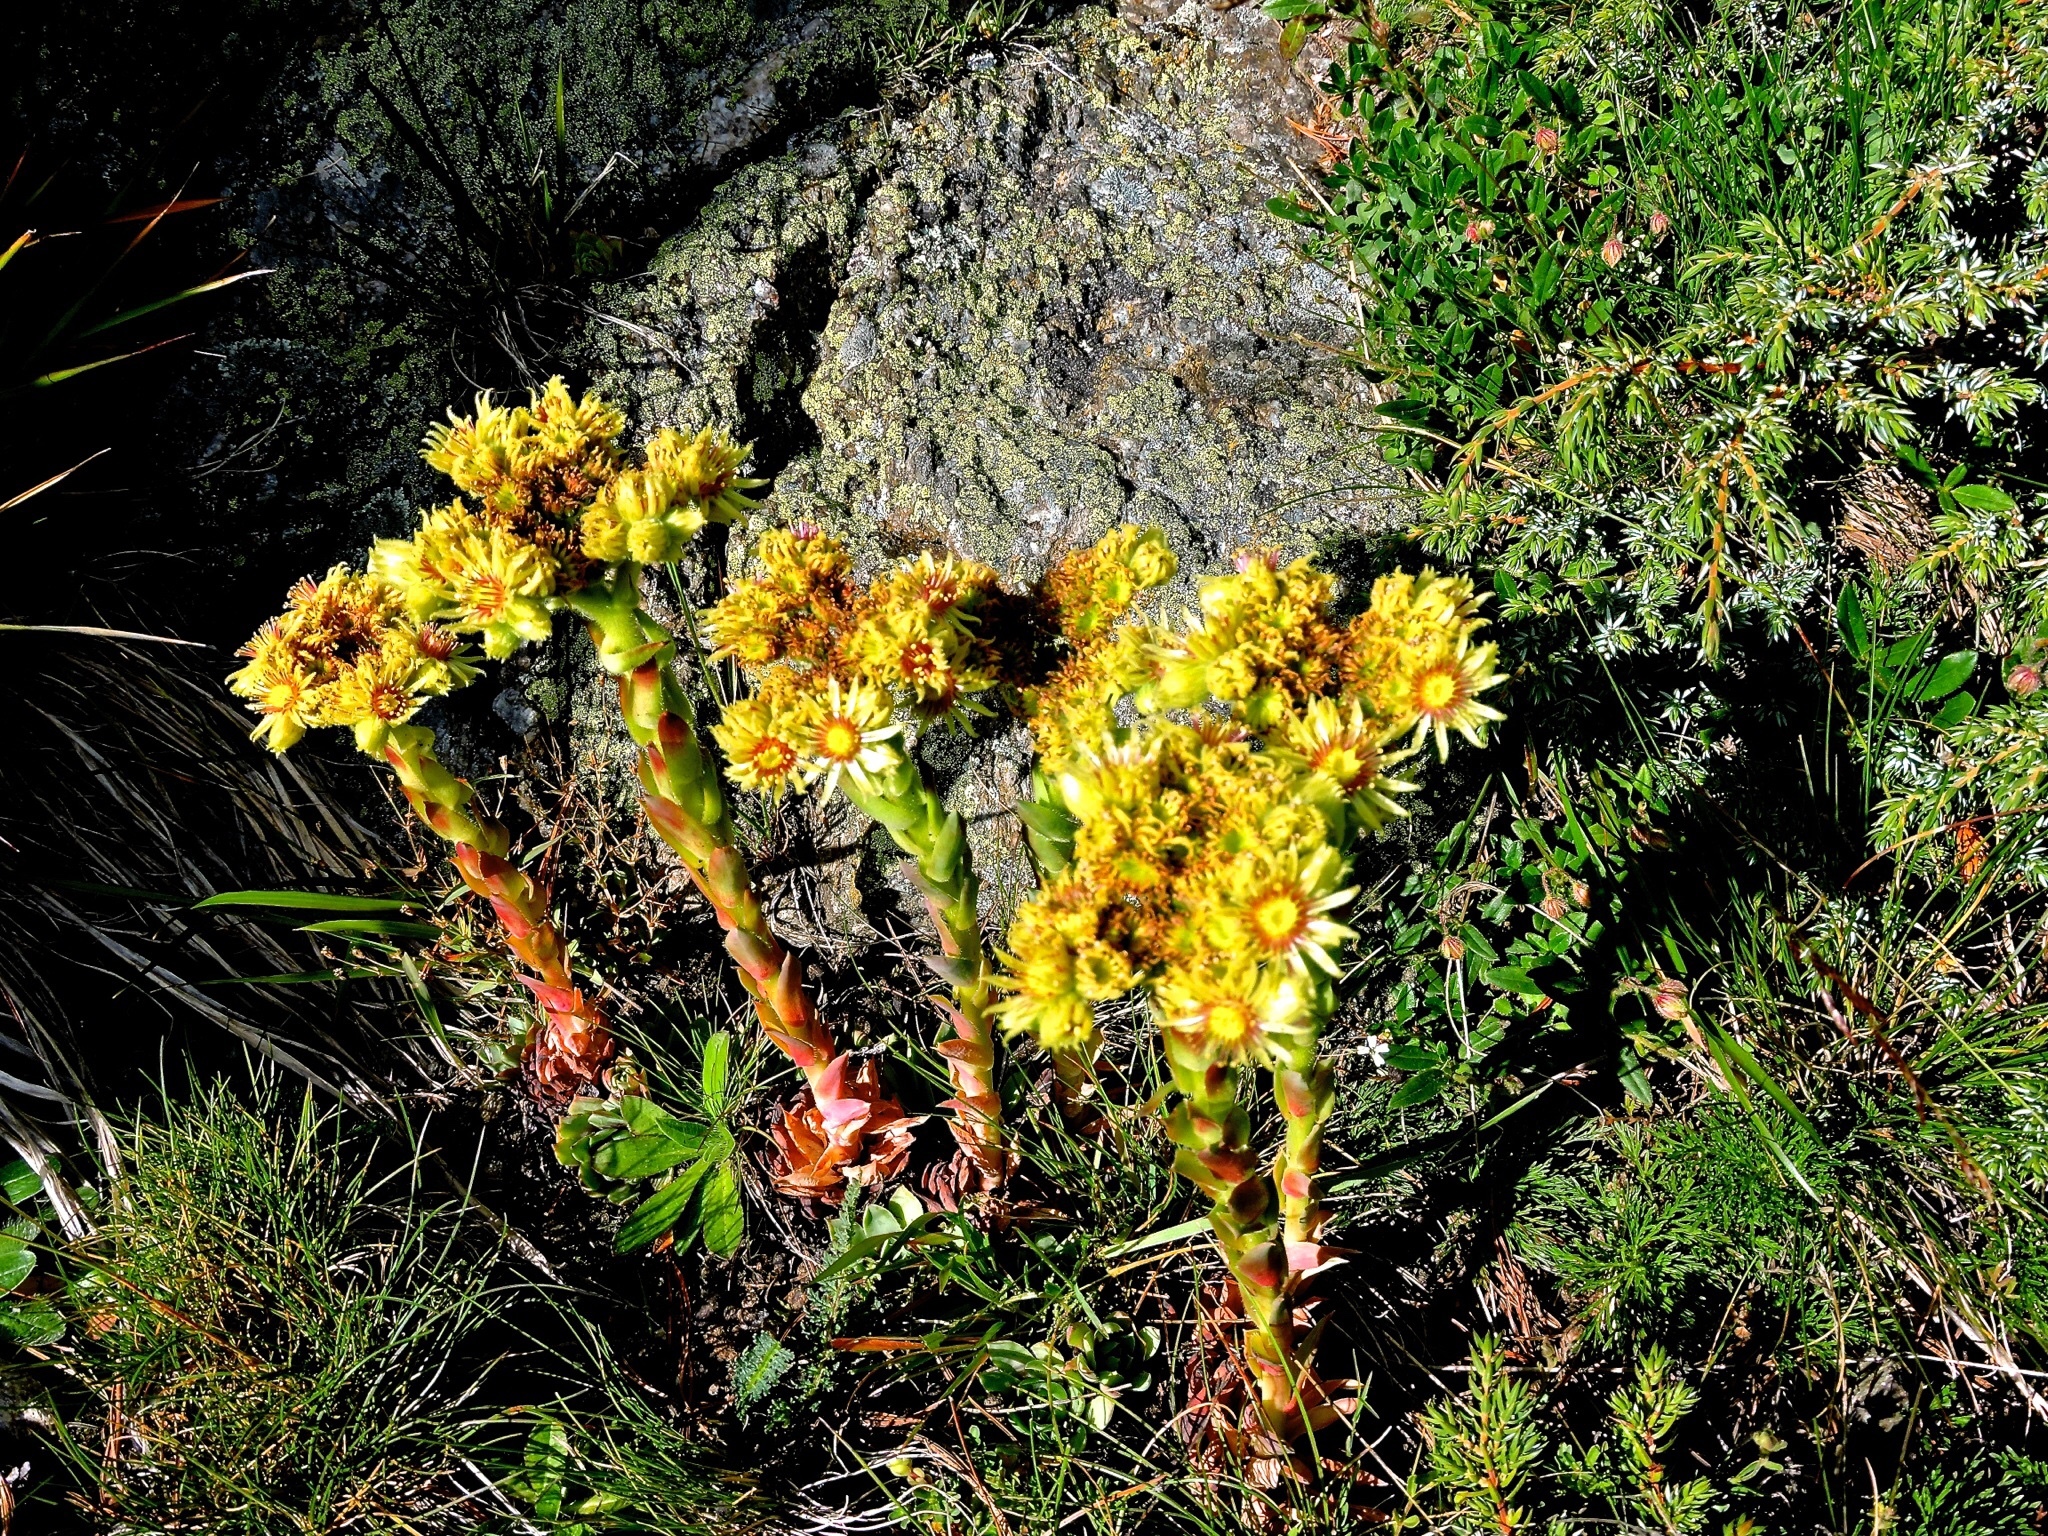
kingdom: Plantae
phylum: Tracheophyta
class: Magnoliopsida
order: Saxifragales
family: Crassulaceae
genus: Sempervivum
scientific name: Sempervivum wulfenii
